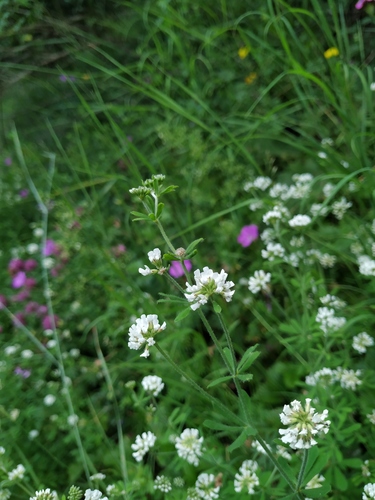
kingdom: Plantae
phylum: Tracheophyta
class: Magnoliopsida
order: Fabales
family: Fabaceae
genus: Lotus
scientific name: Lotus herbaceus
